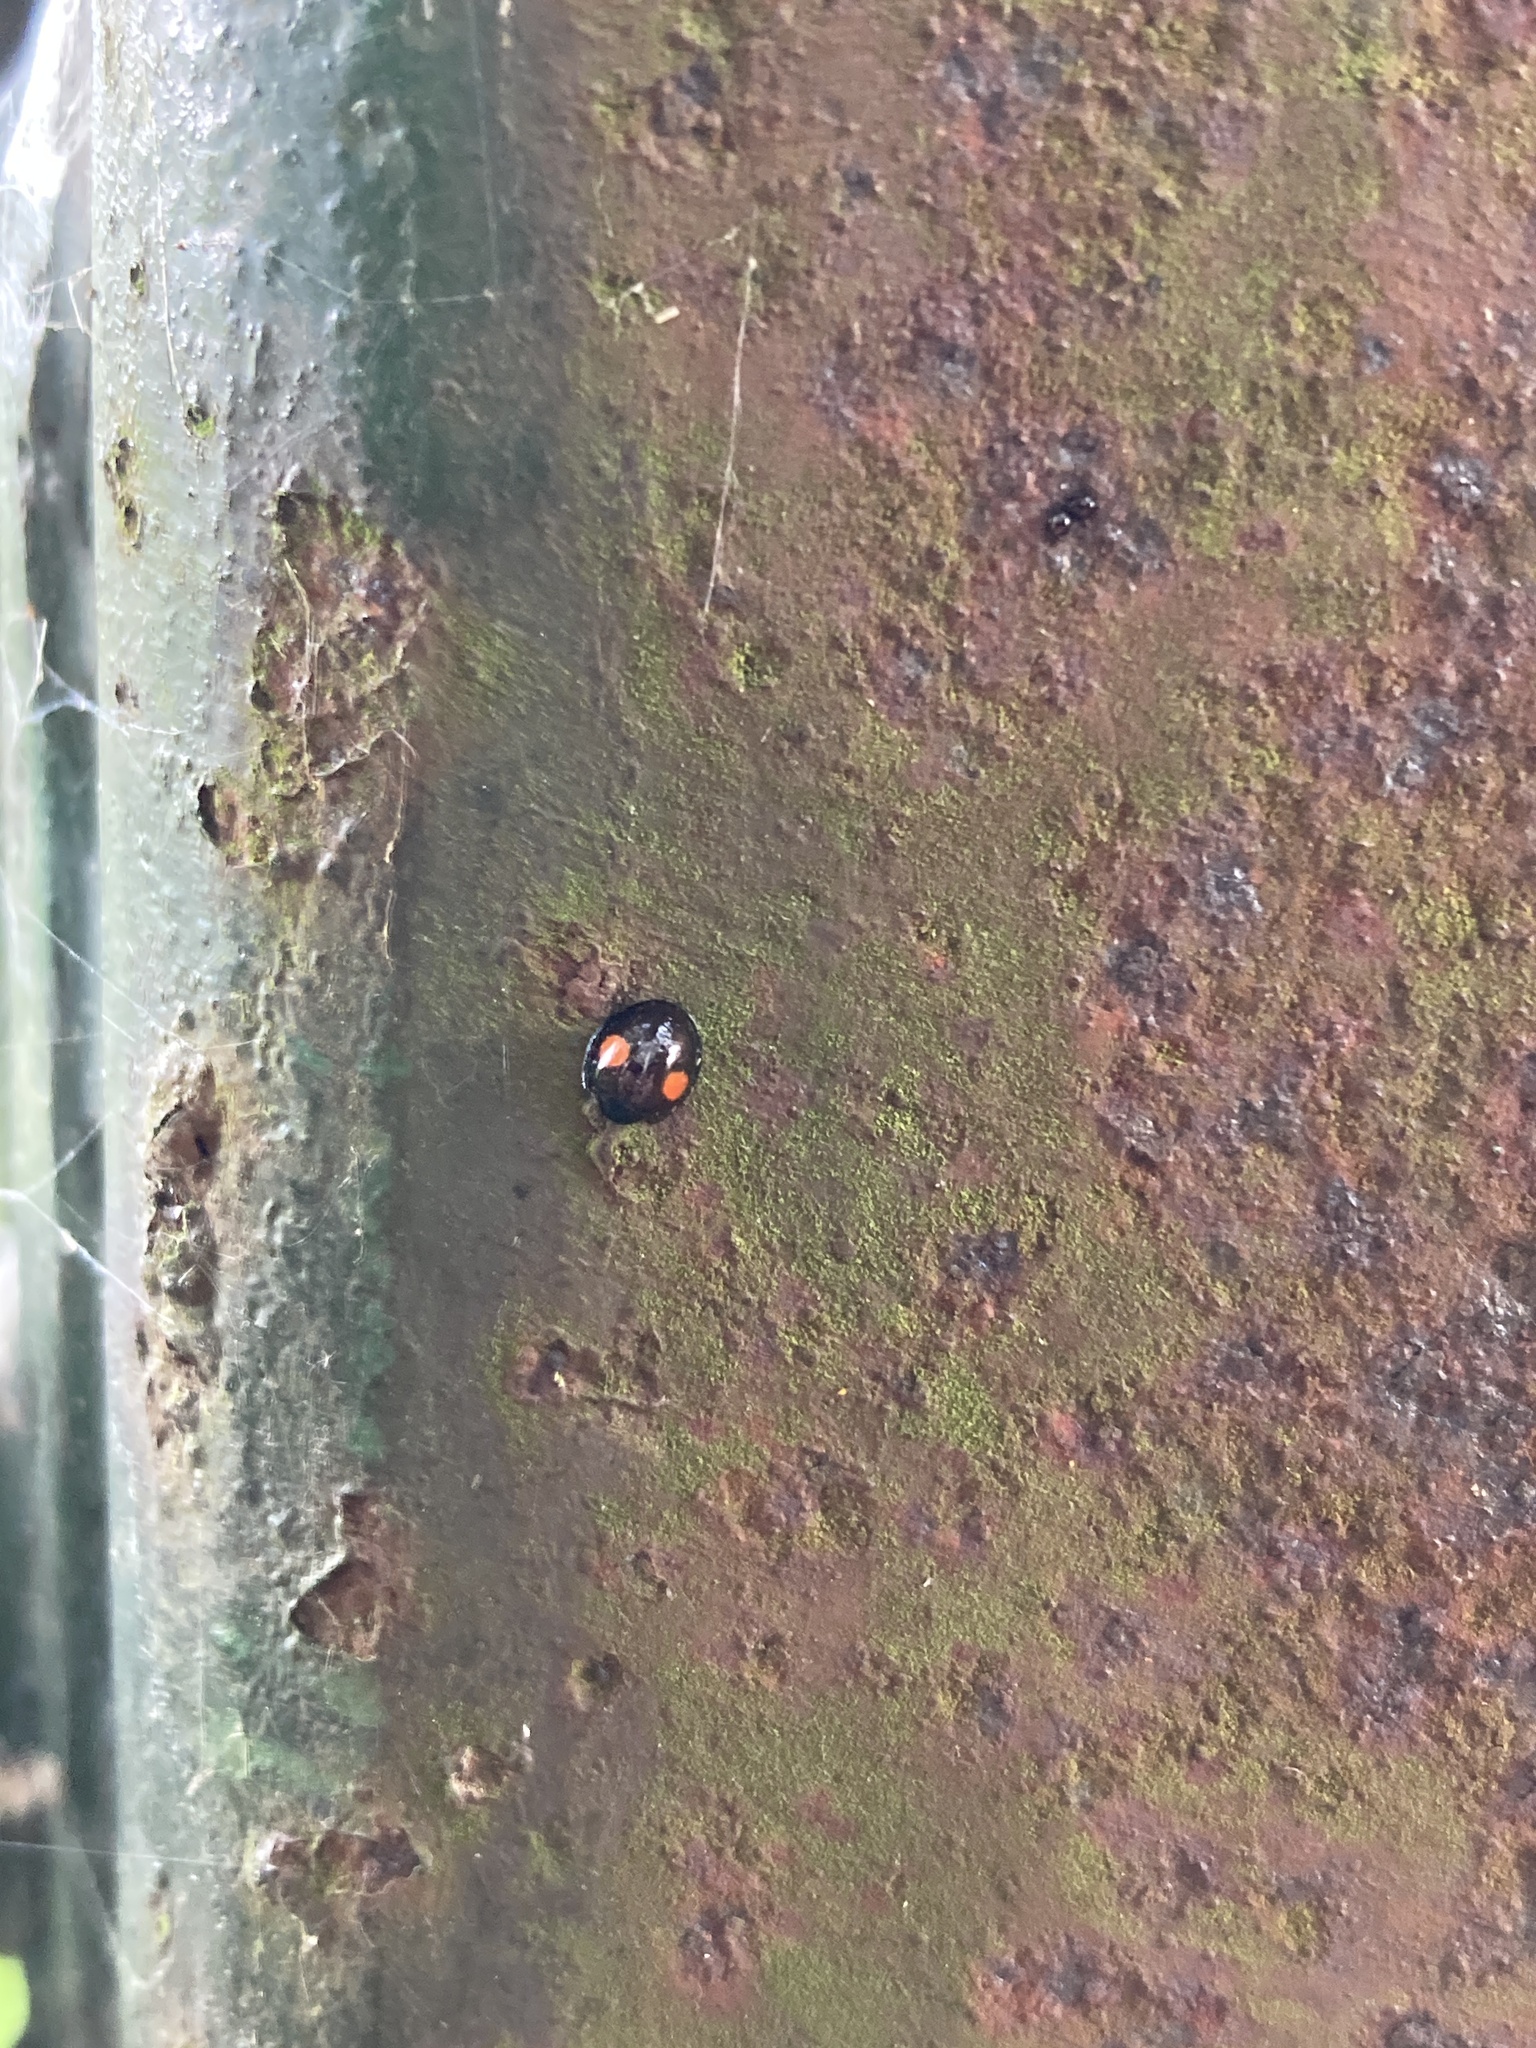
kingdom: Animalia
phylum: Arthropoda
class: Insecta
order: Coleoptera
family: Coccinellidae
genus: Chilocorus
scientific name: Chilocorus renipustulatus
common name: Kidney-spot ladybird
